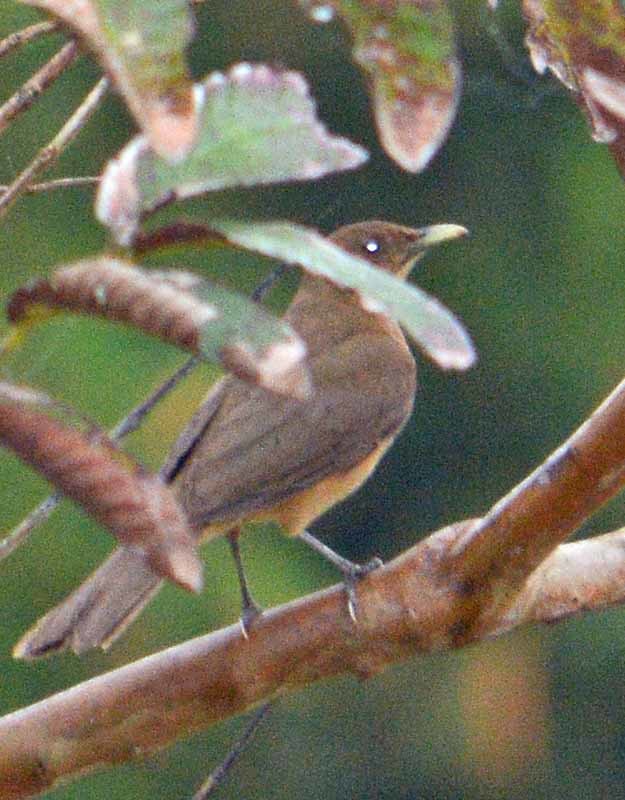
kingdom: Animalia
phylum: Chordata
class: Aves
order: Passeriformes
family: Turdidae
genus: Turdus
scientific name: Turdus grayi
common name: Clay-colored thrush
